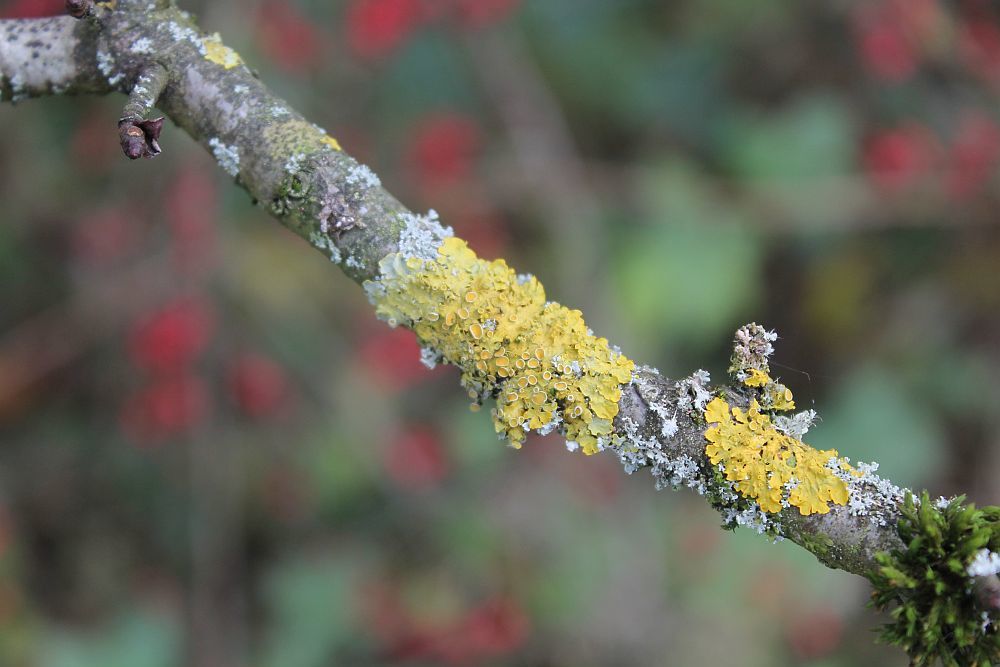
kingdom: Fungi
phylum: Ascomycota
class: Lecanoromycetes
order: Teloschistales
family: Teloschistaceae
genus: Xanthoria
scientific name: Xanthoria parietina
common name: Common orange lichen
